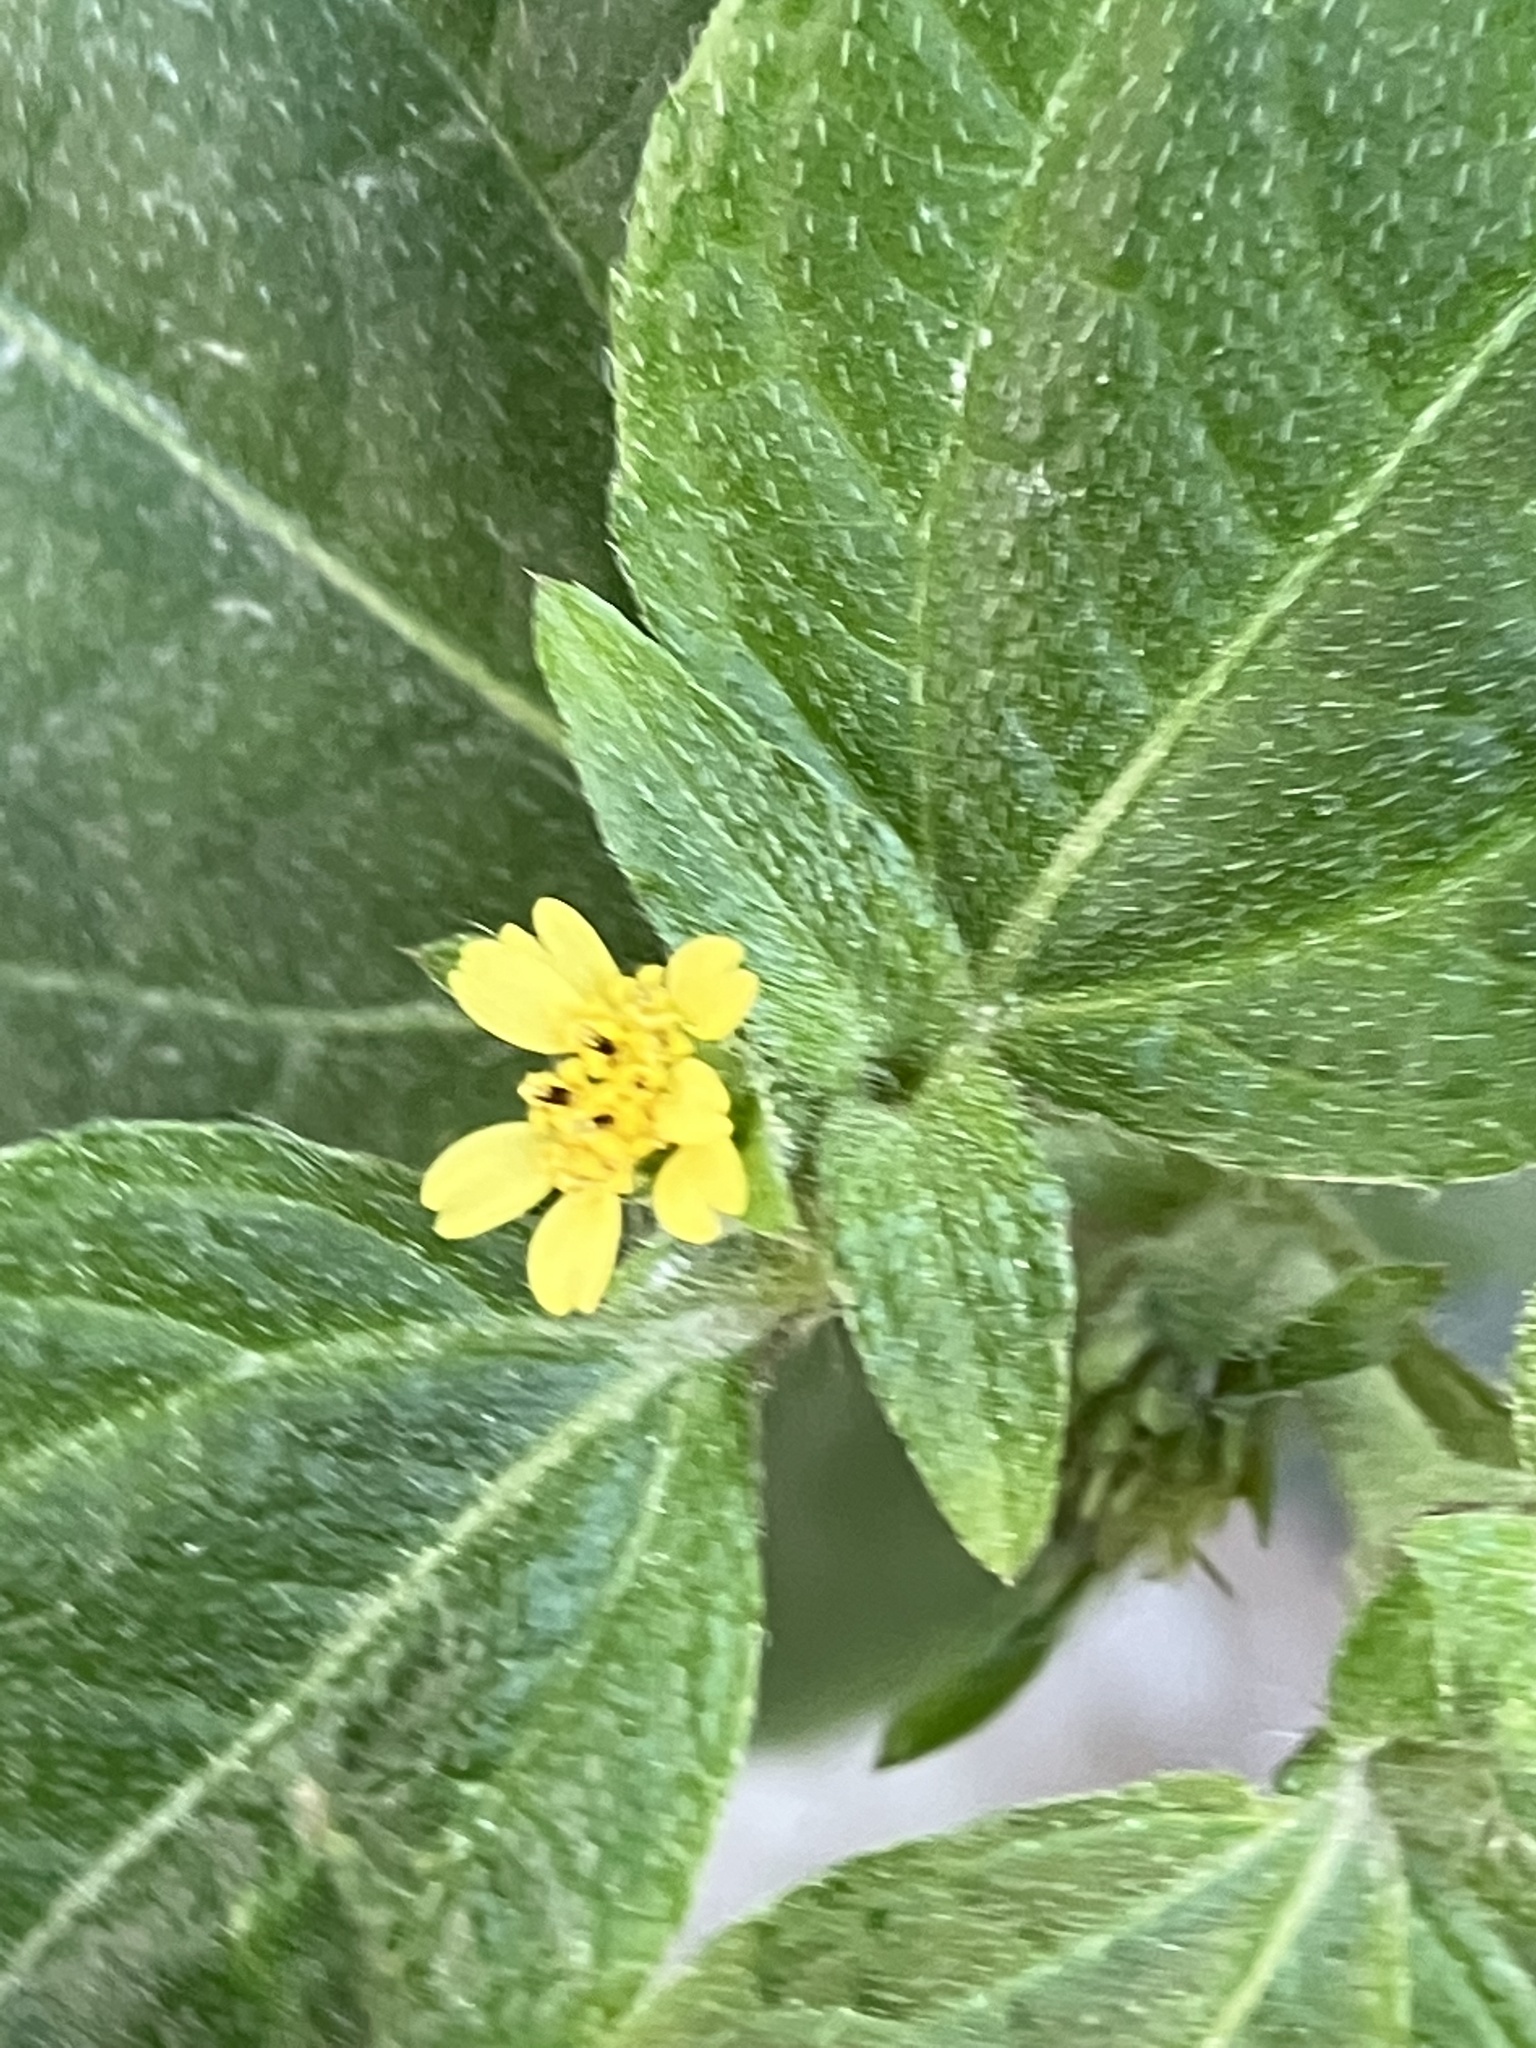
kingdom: Plantae
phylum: Tracheophyta
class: Magnoliopsida
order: Asterales
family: Asteraceae
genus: Synedrella
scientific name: Synedrella nodiflora
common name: Nodeweed
